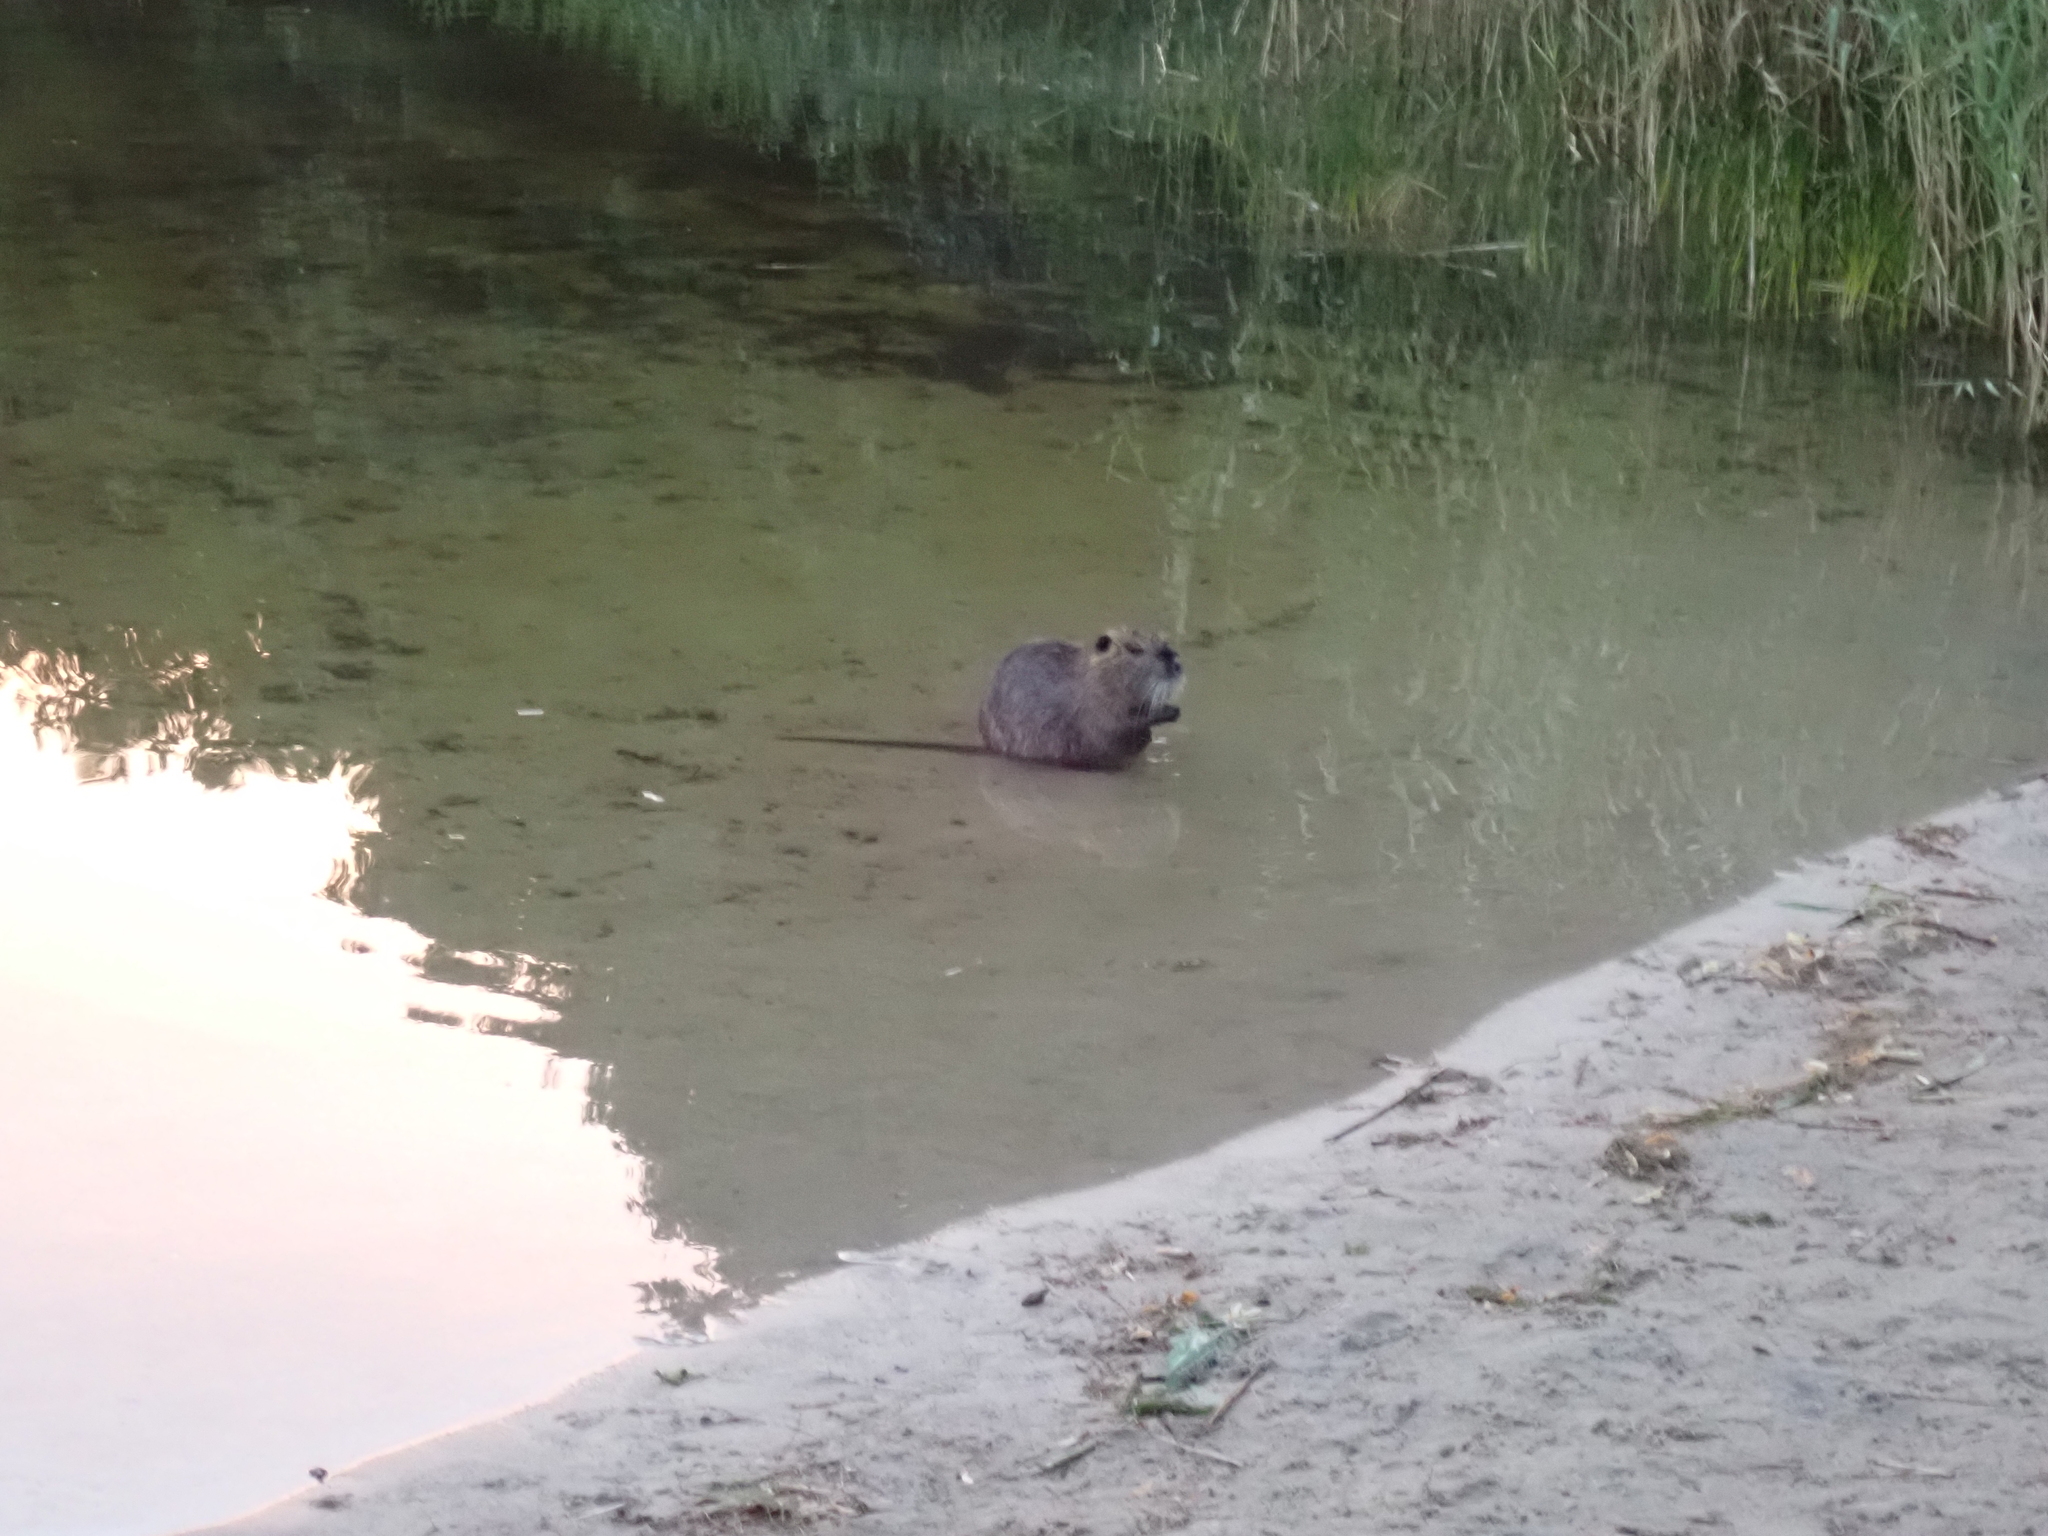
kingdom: Animalia
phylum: Chordata
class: Mammalia
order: Rodentia
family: Myocastoridae
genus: Myocastor
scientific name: Myocastor coypus
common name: Coypu
